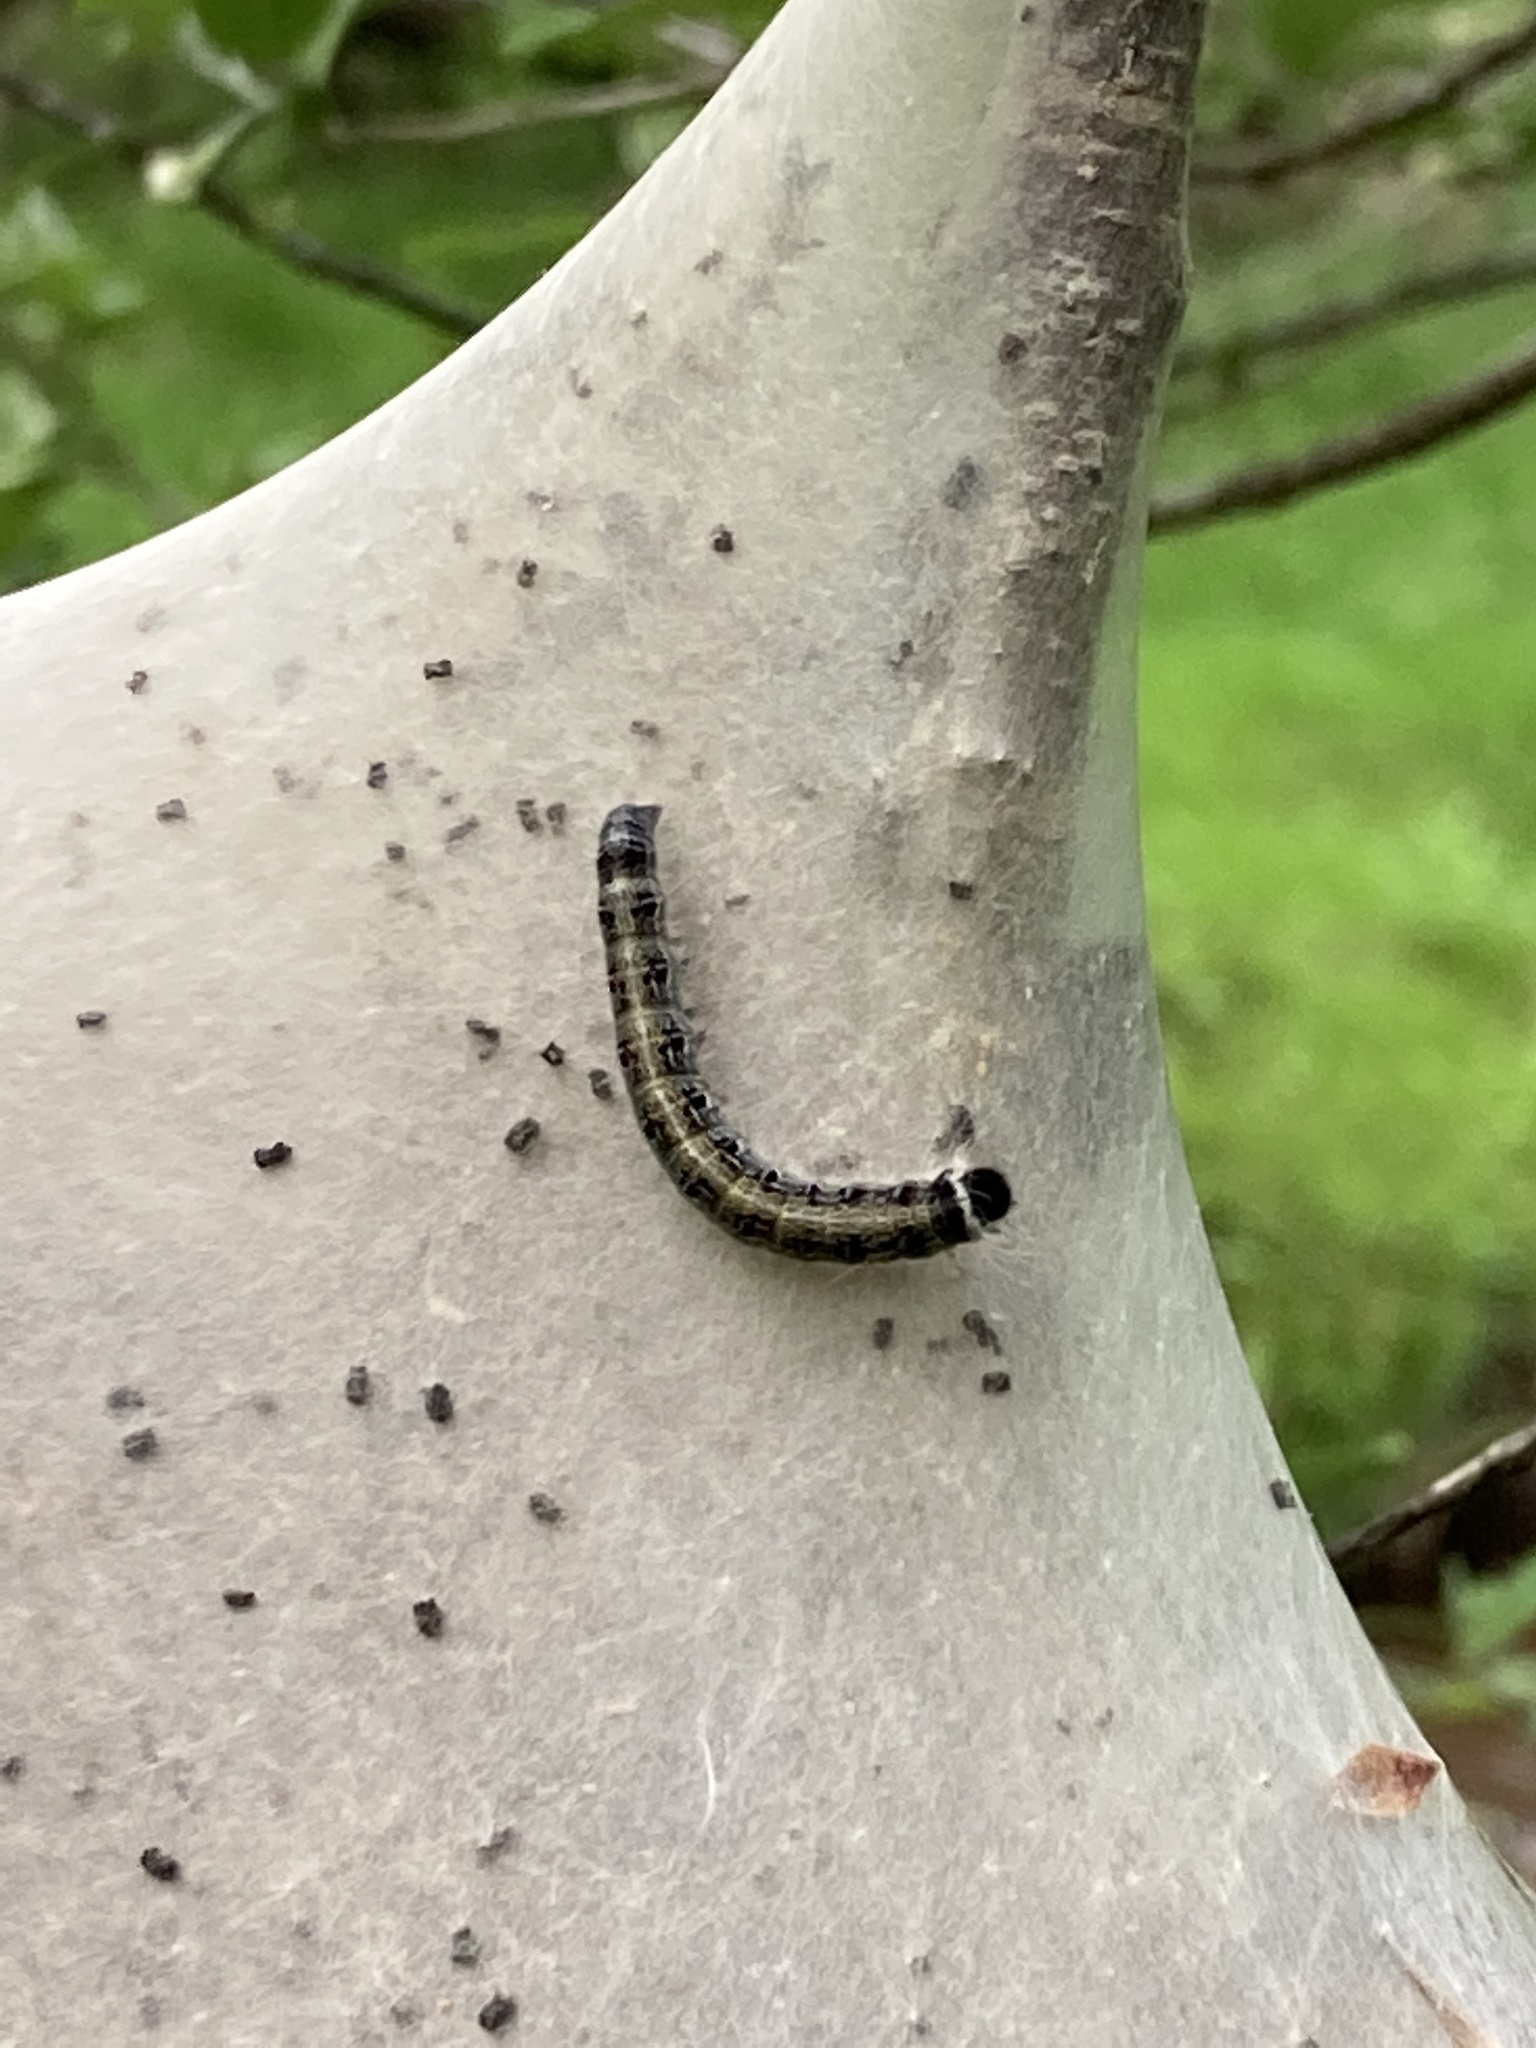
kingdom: Animalia
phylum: Arthropoda
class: Insecta
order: Lepidoptera
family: Lasiocampidae
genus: Malacosoma
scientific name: Malacosoma americana
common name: Eastern tent caterpillar moth
